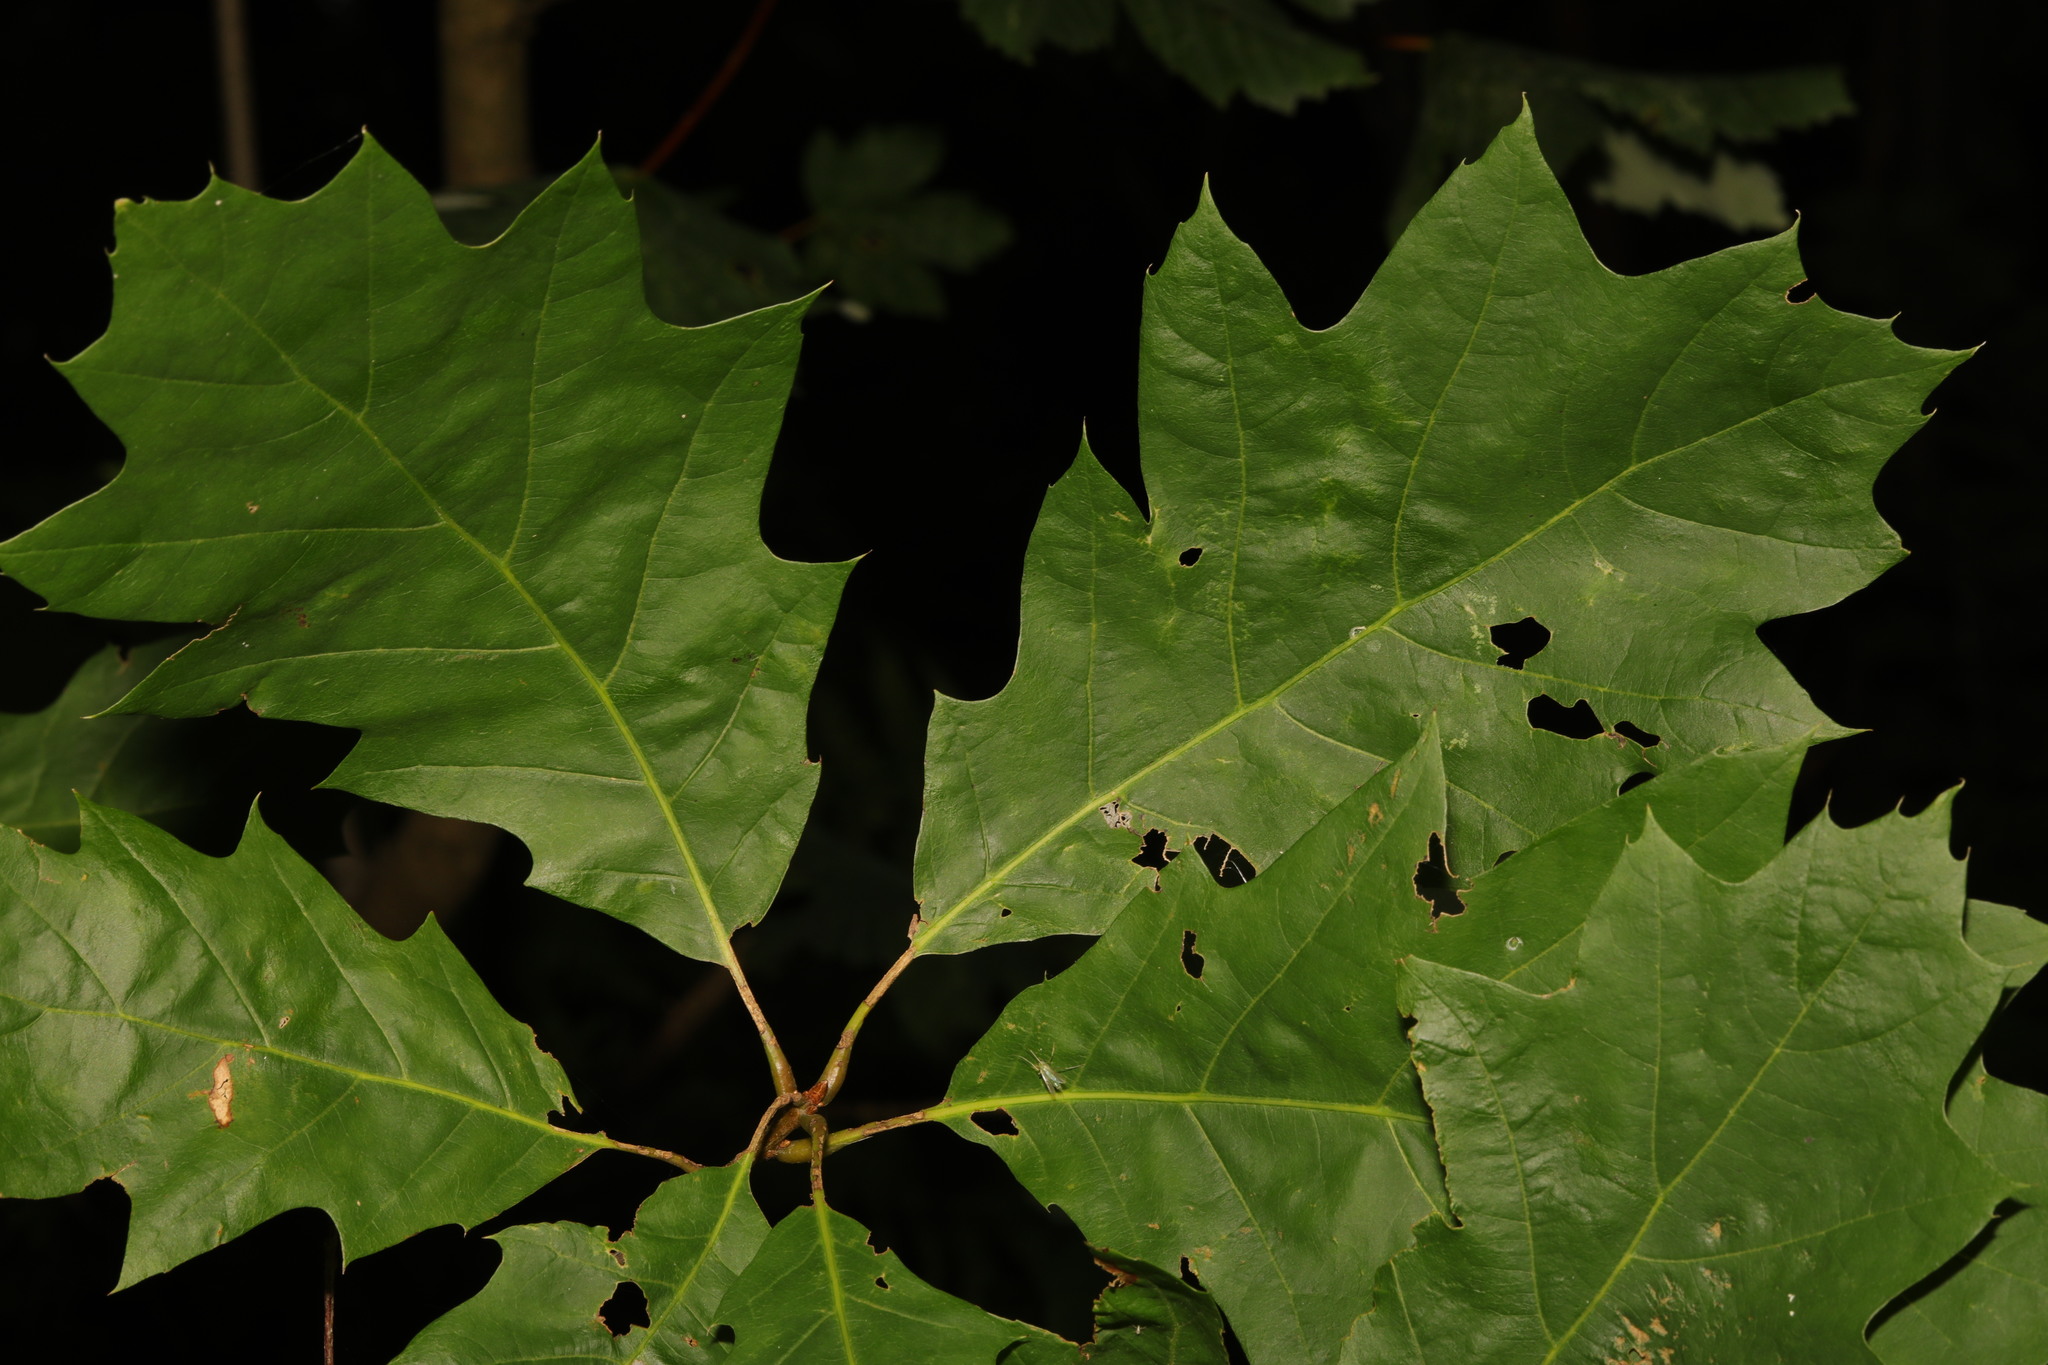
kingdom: Plantae
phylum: Tracheophyta
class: Magnoliopsida
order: Fagales
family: Fagaceae
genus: Quercus
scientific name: Quercus rubra
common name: Red oak
